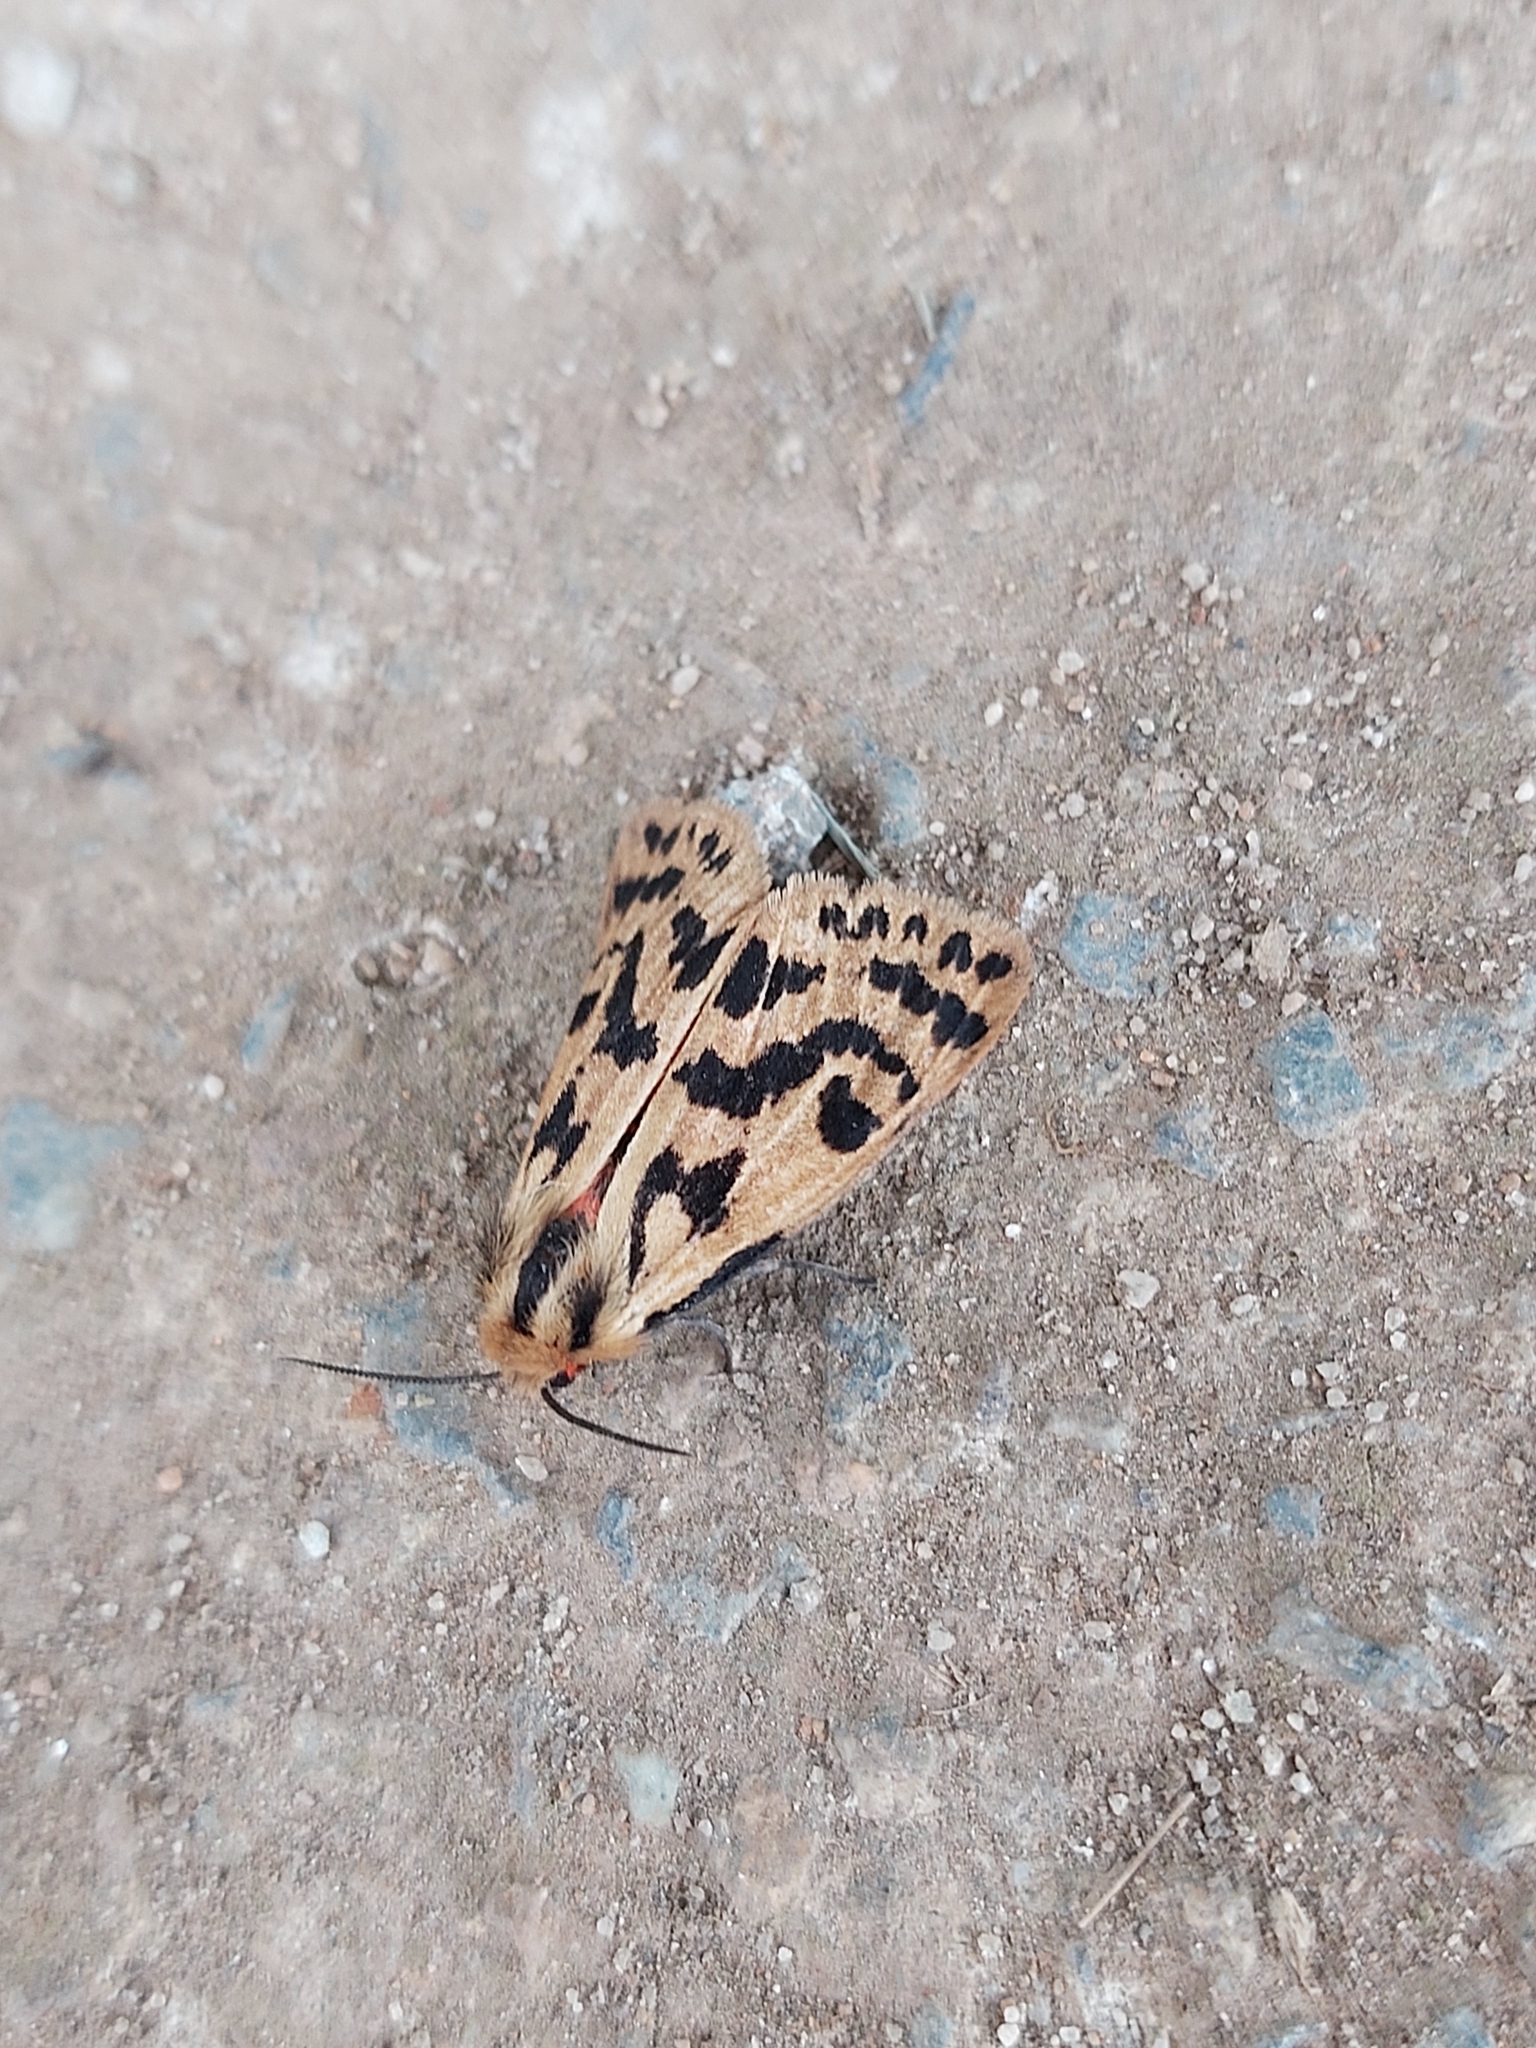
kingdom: Animalia
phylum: Arthropoda
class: Insecta
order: Lepidoptera
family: Erebidae
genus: Ardices
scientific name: Ardices curvata
